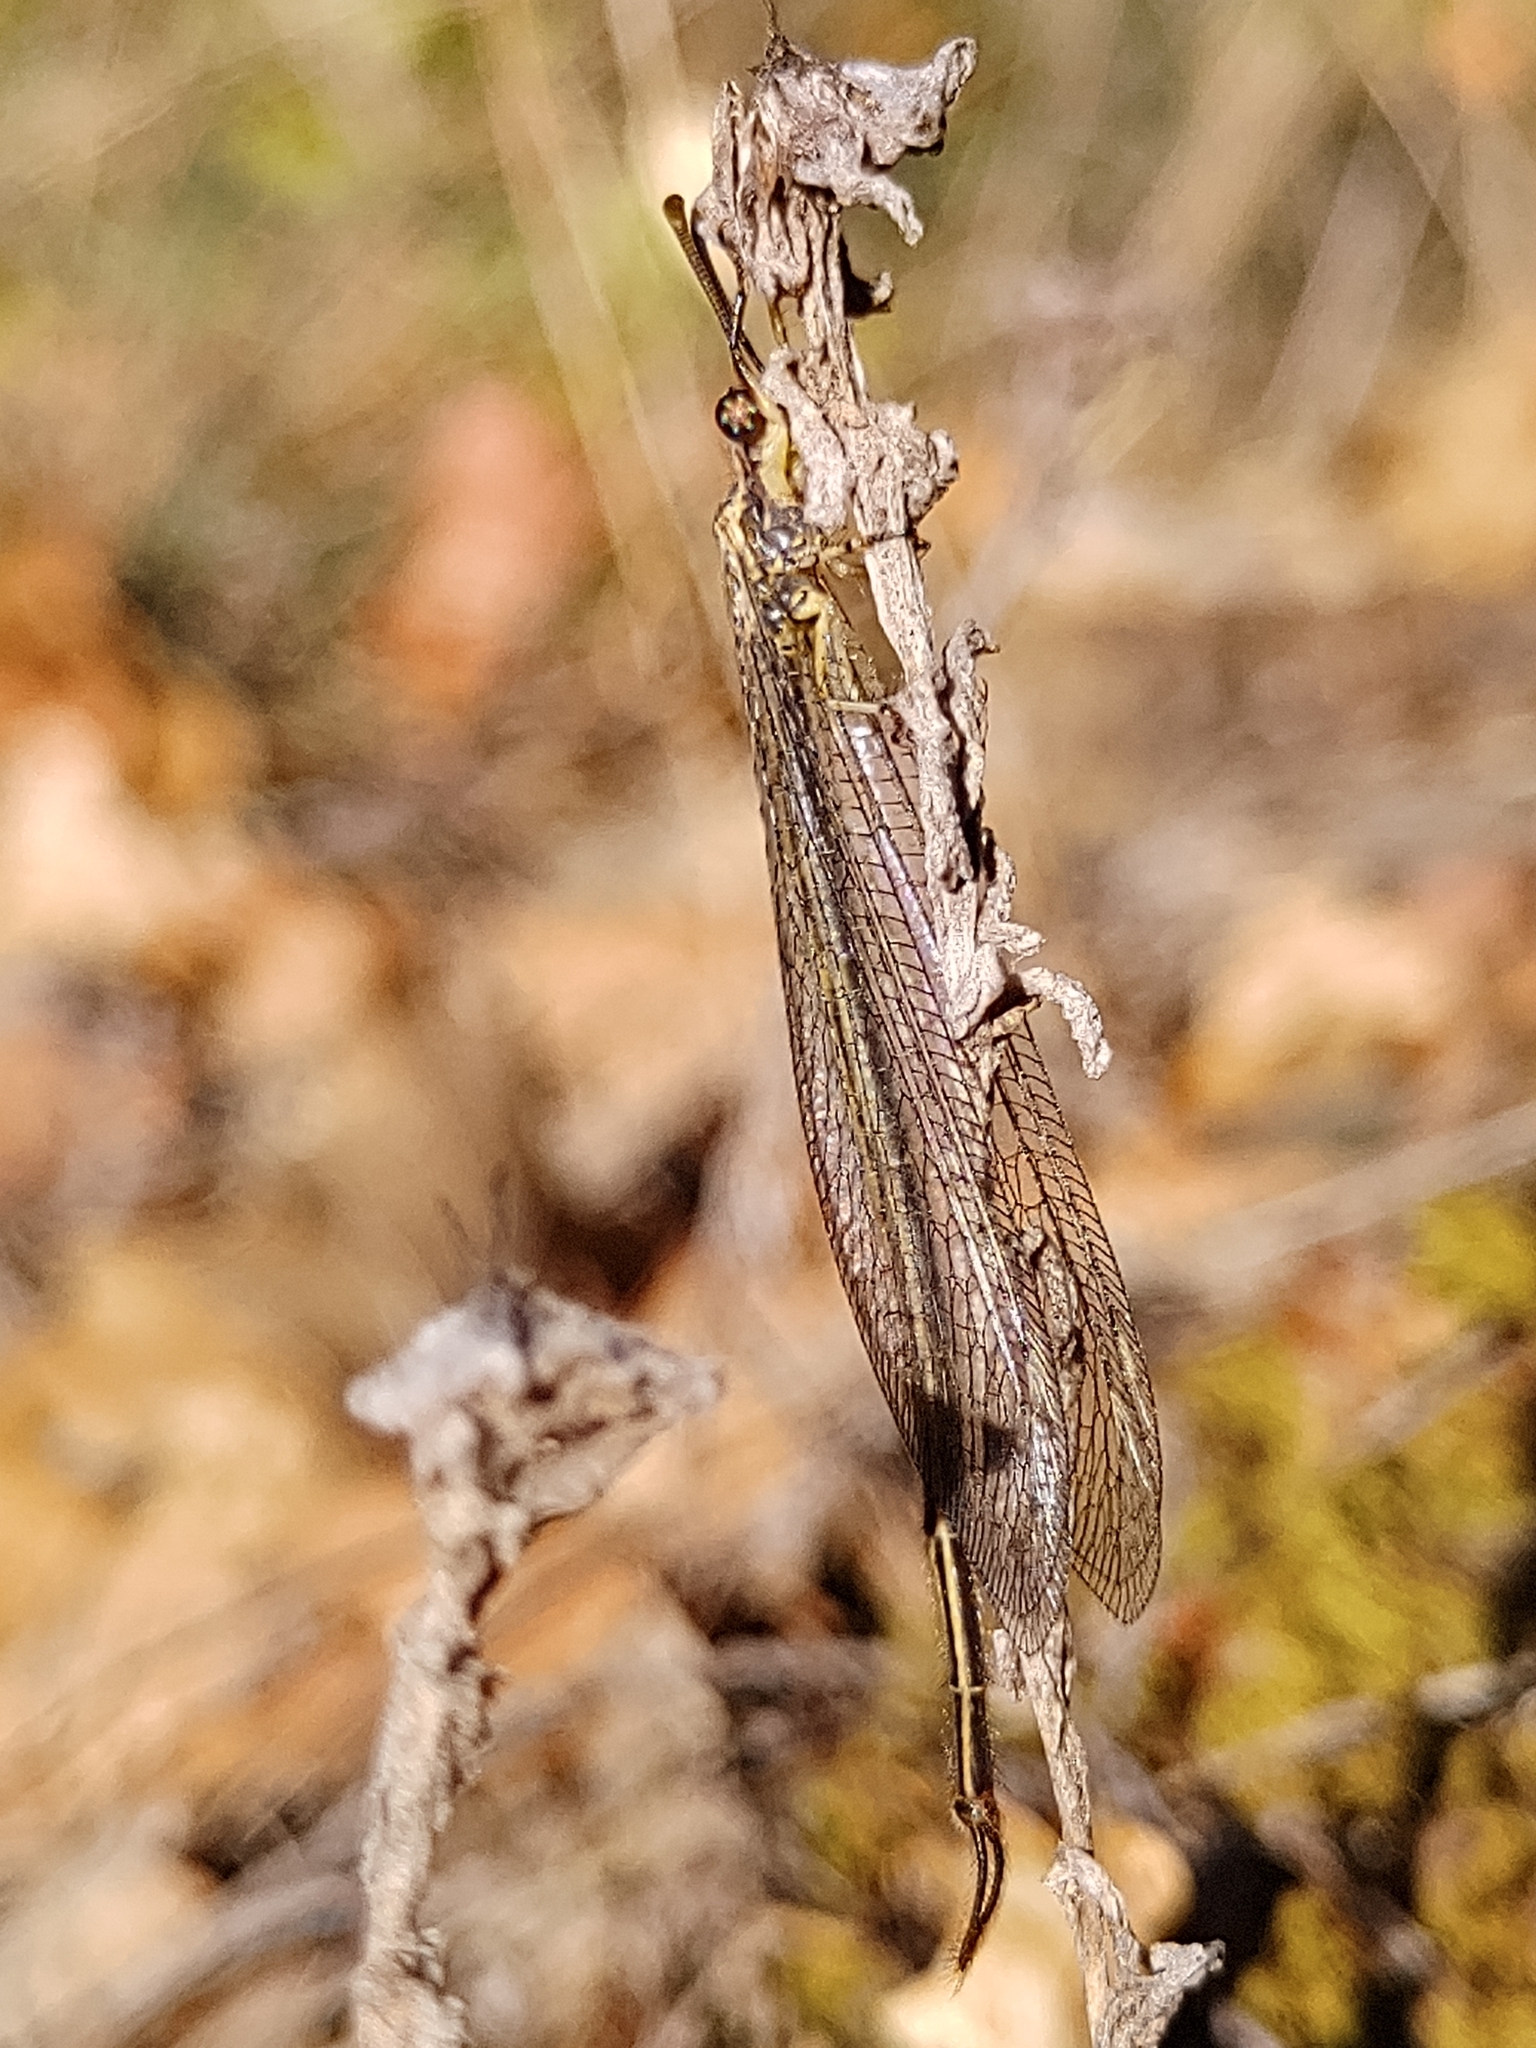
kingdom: Animalia
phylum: Arthropoda
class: Insecta
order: Neuroptera
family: Myrmeleontidae
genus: Macronemurus
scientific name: Macronemurus appendiculatus
